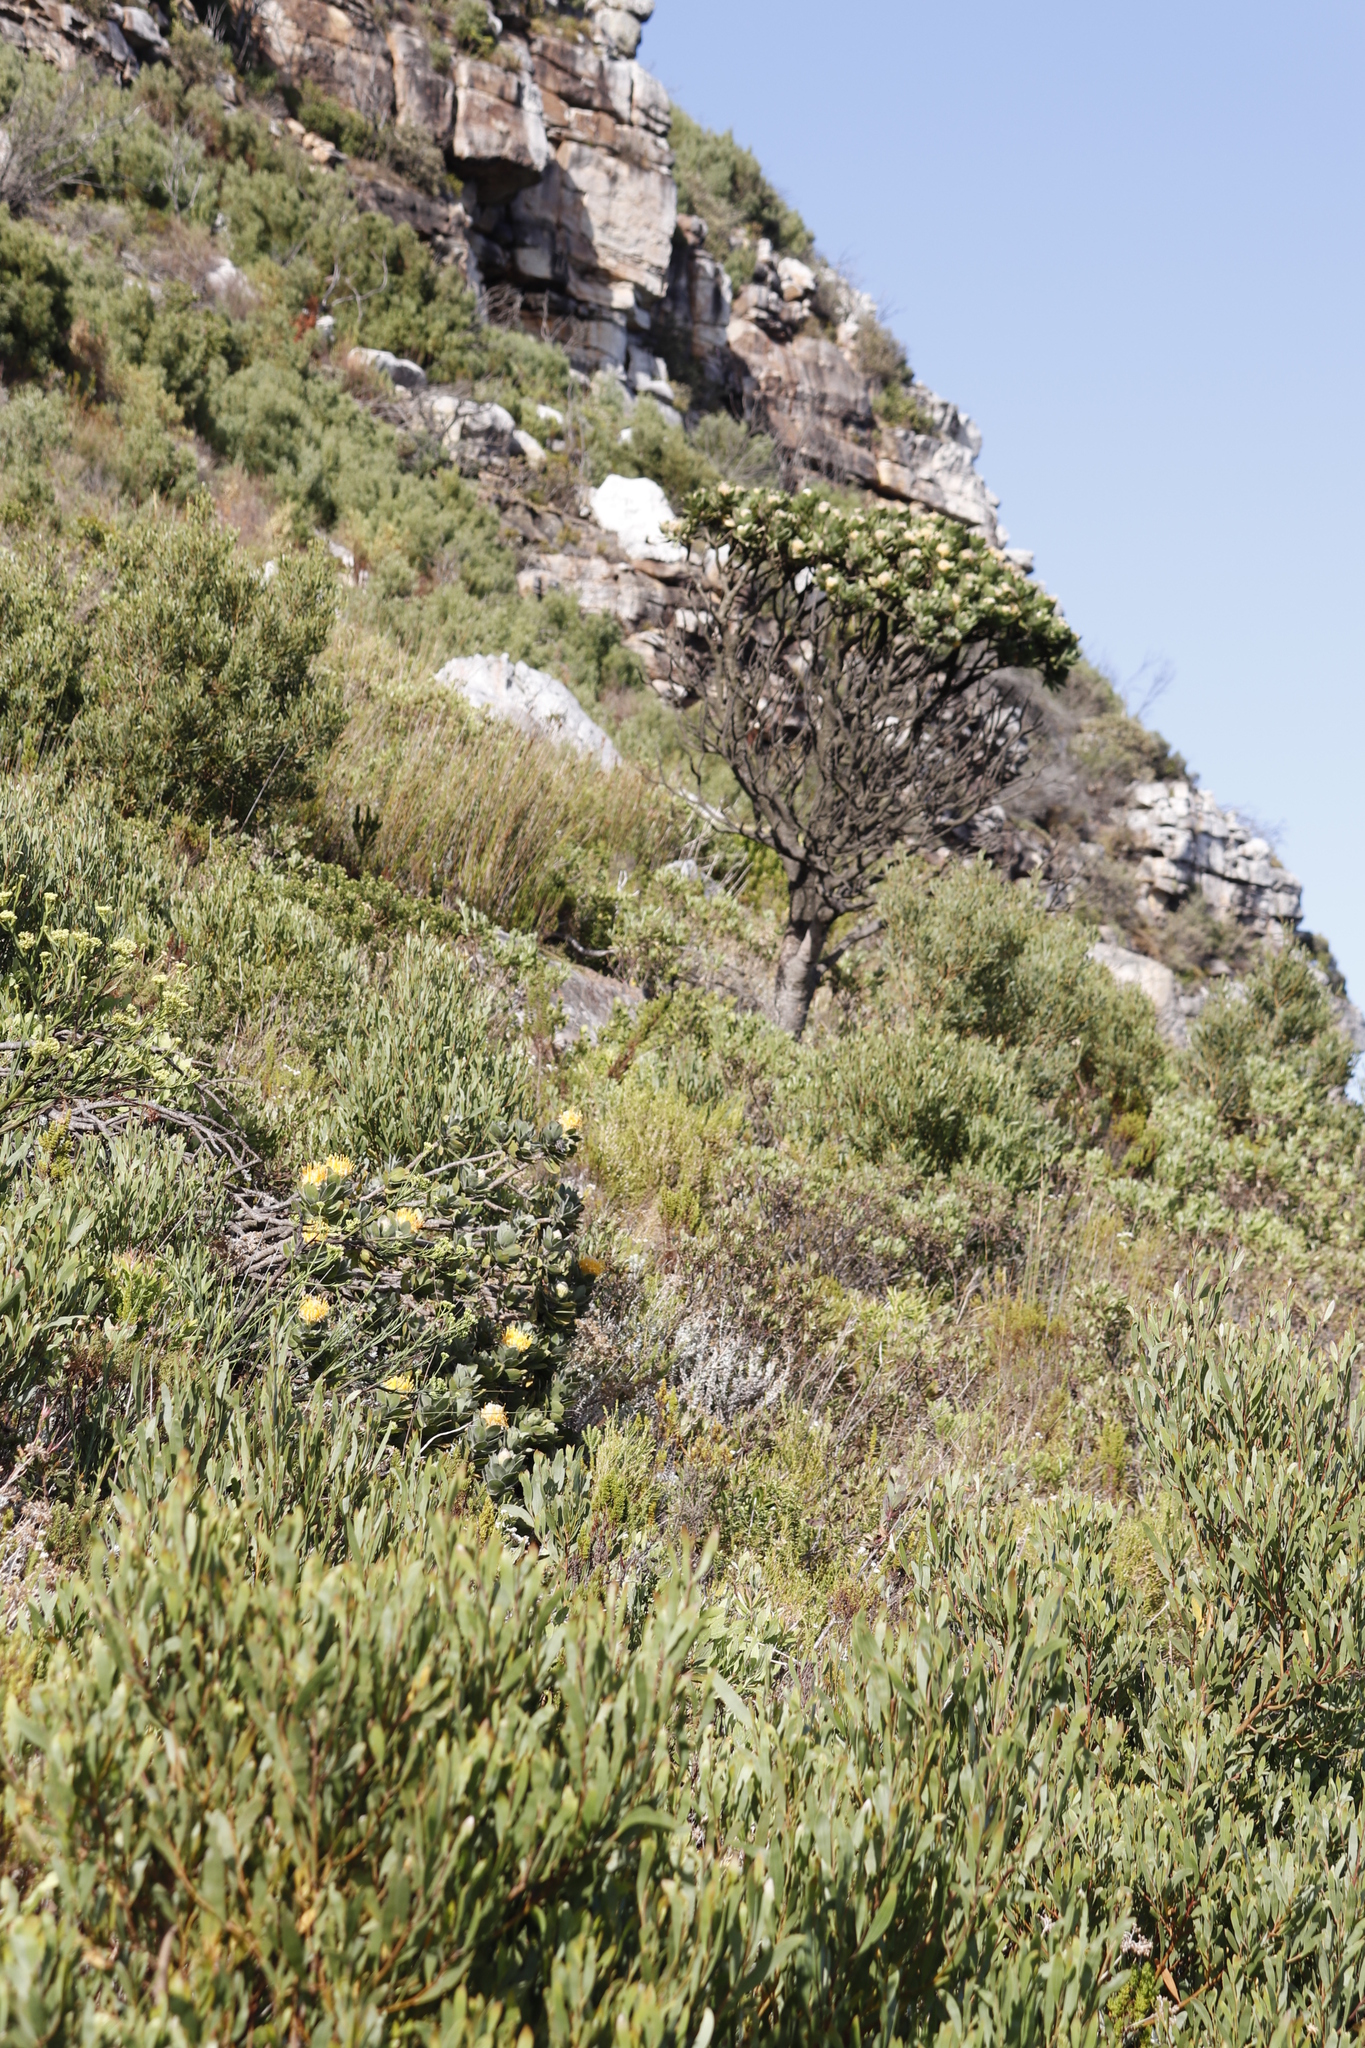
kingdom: Plantae
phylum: Tracheophyta
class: Magnoliopsida
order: Proteales
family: Proteaceae
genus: Leucospermum
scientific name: Leucospermum conocarpodendron
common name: Tree pincushion
